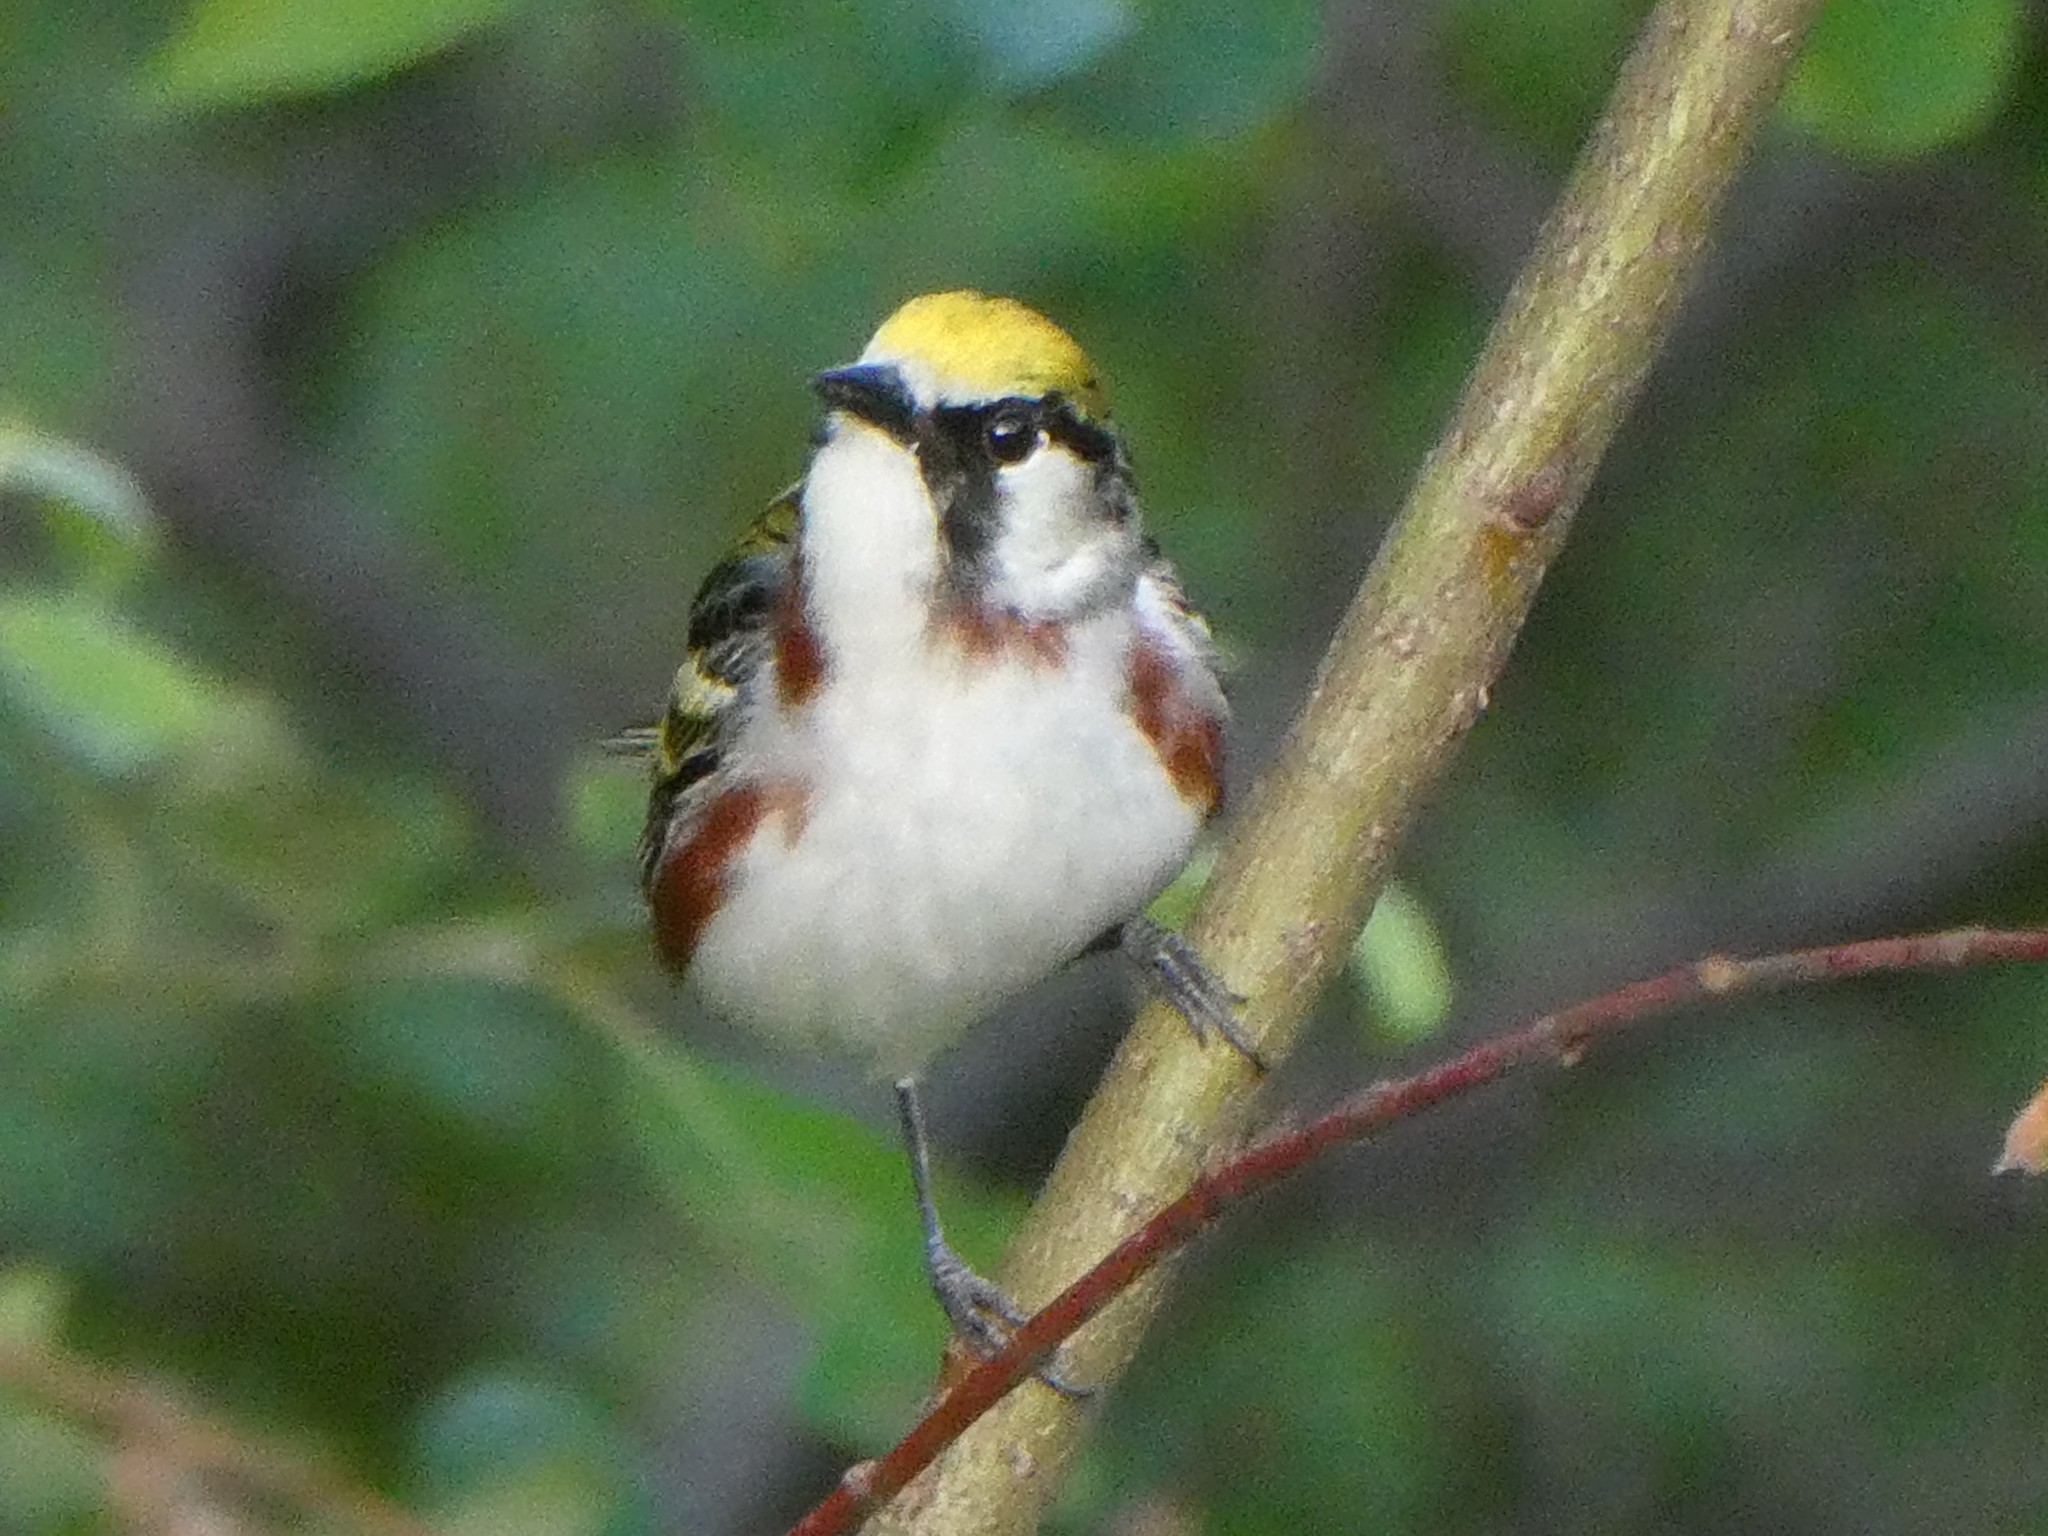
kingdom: Animalia
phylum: Chordata
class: Aves
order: Passeriformes
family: Parulidae
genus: Setophaga
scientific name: Setophaga pensylvanica
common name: Chestnut-sided warbler
